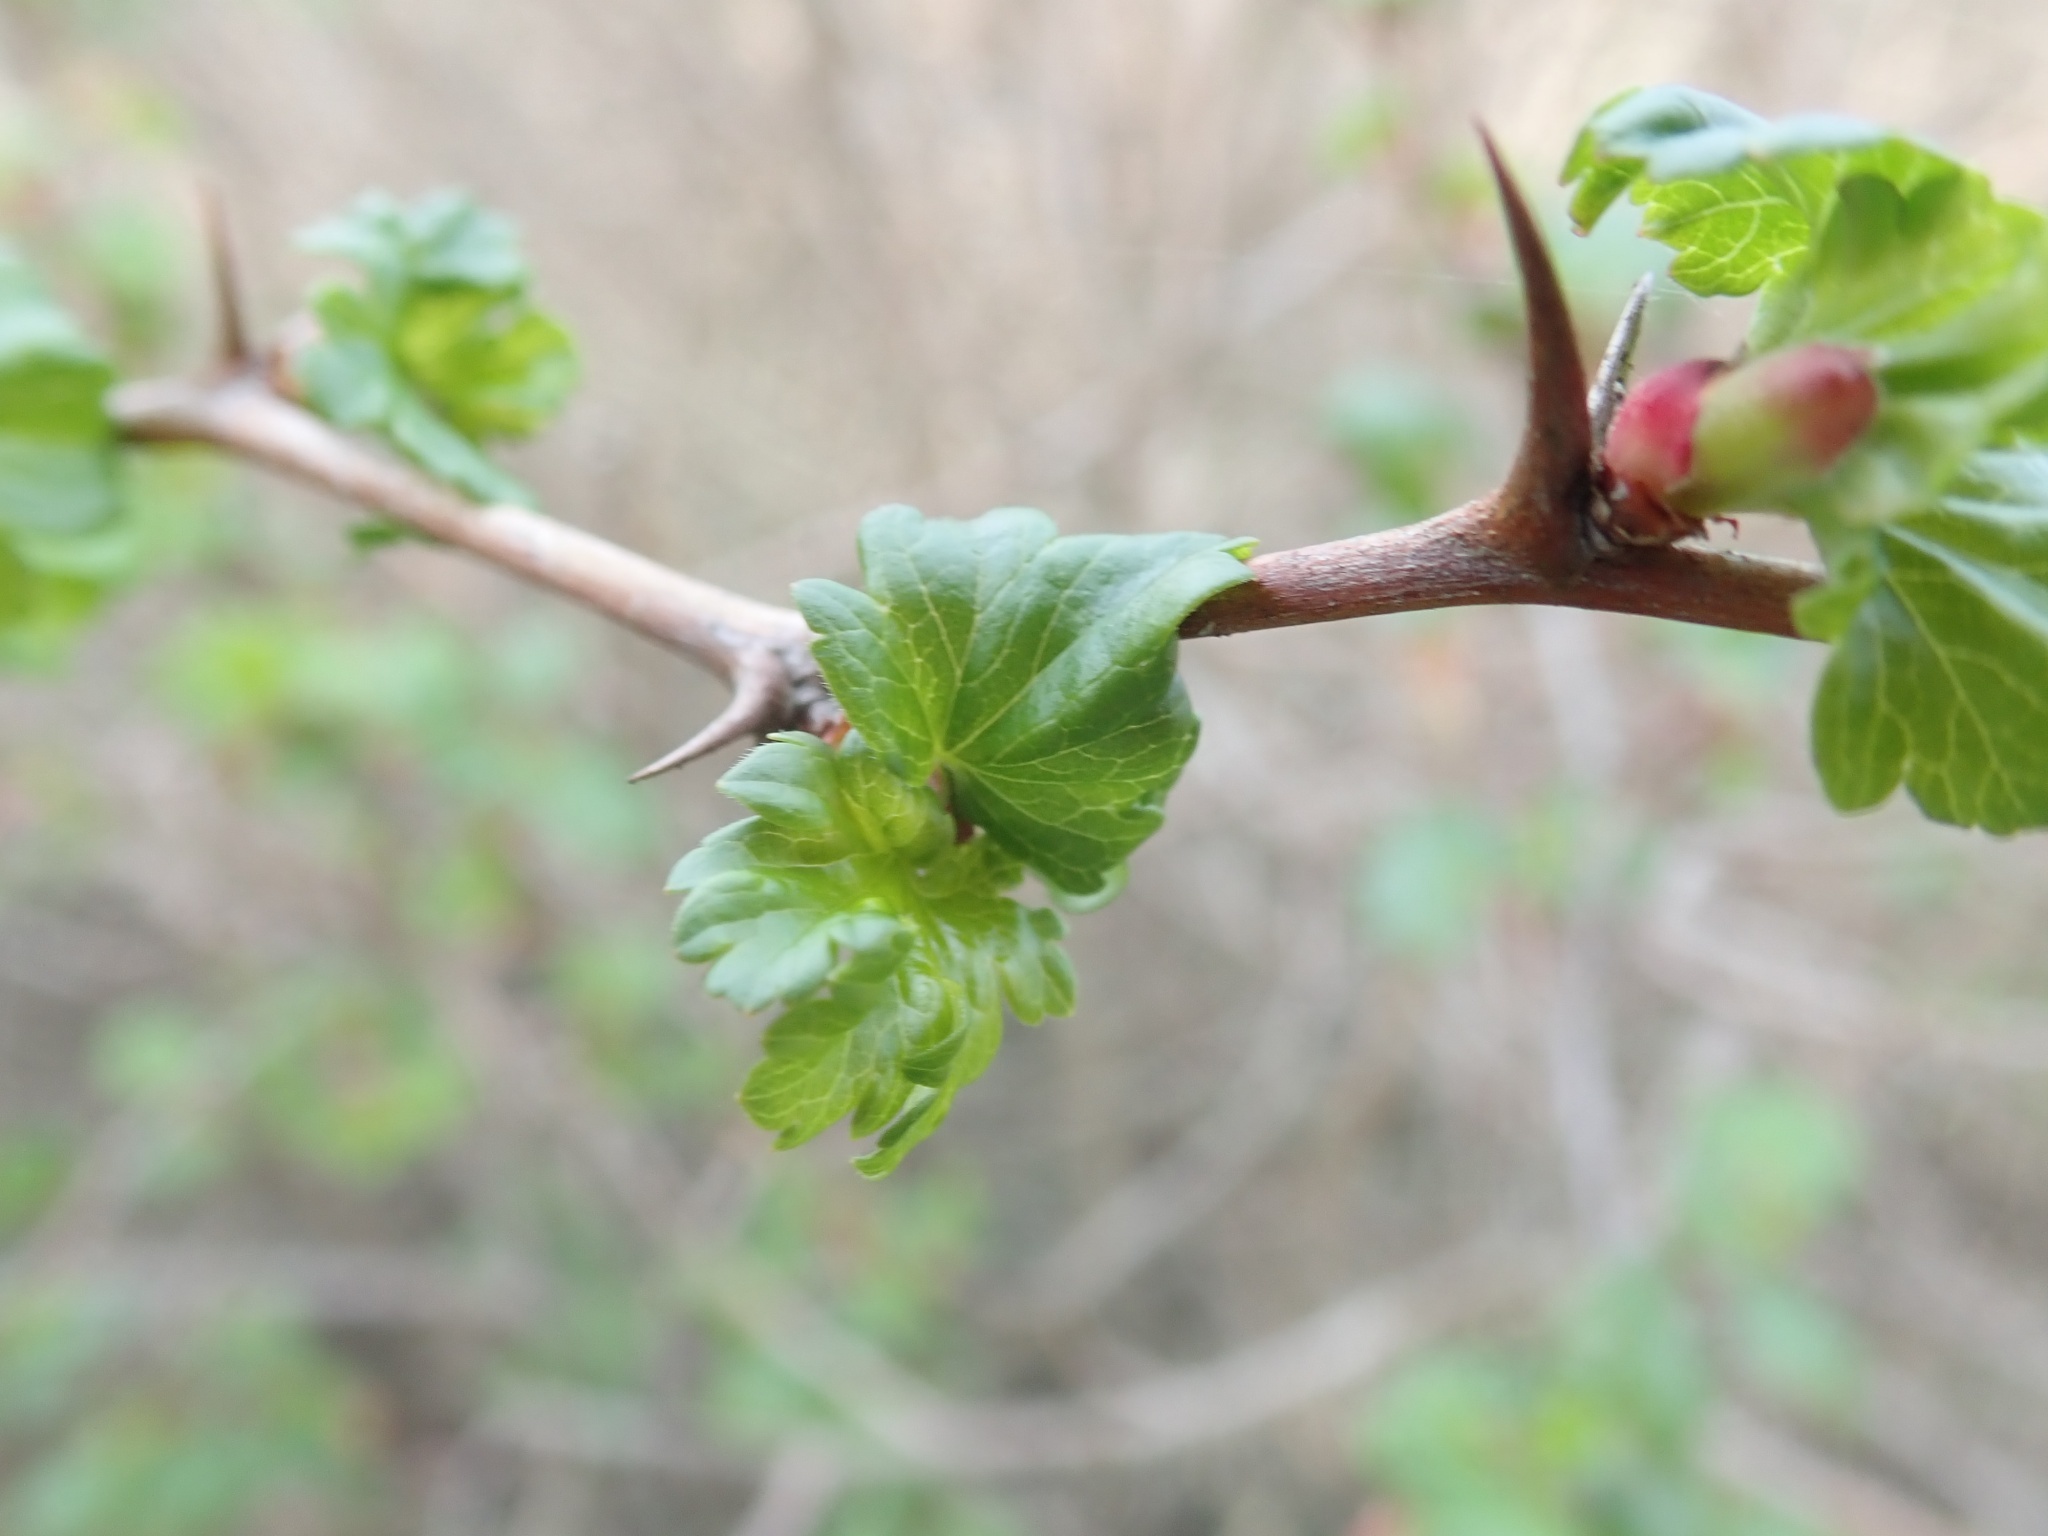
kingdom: Plantae
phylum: Tracheophyta
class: Magnoliopsida
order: Saxifragales
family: Grossulariaceae
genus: Ribes
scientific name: Ribes californicum
